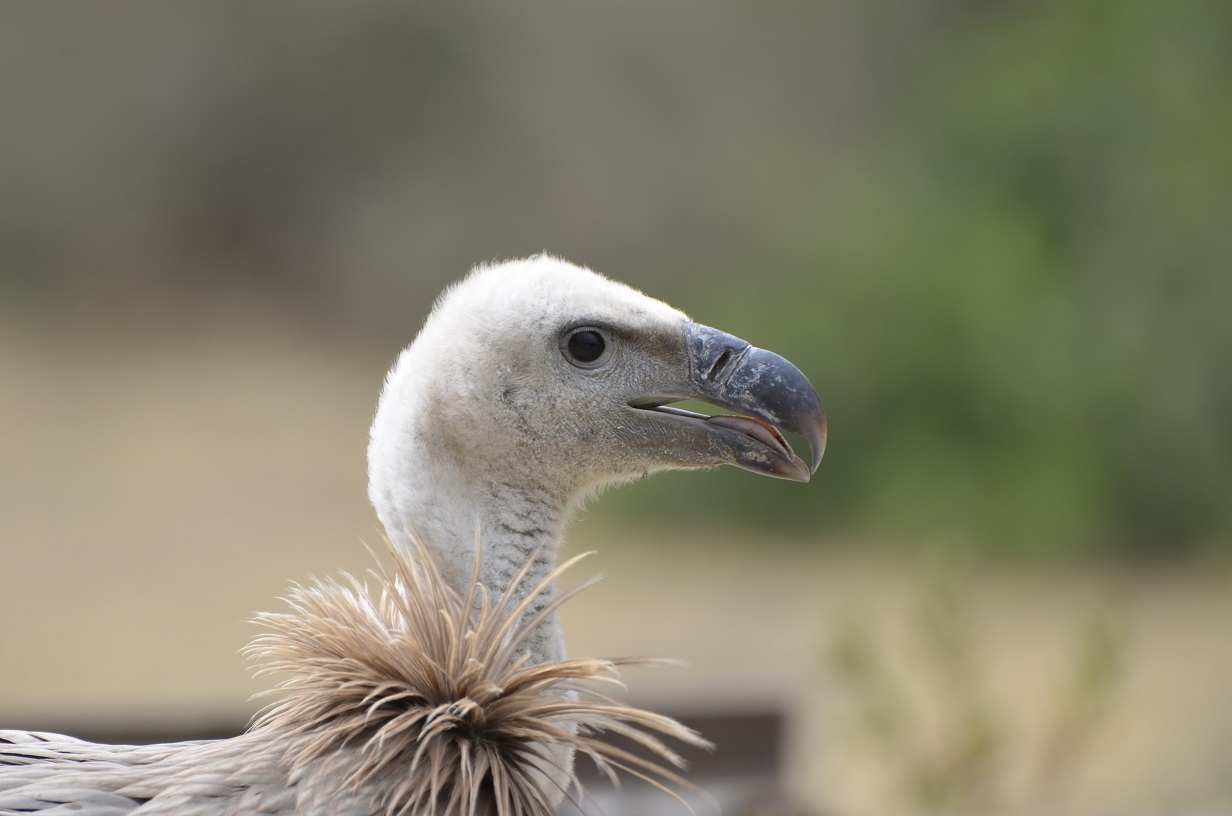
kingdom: Animalia
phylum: Chordata
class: Aves
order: Accipitriformes
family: Accipitridae
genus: Gyps
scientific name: Gyps fulvus
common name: Griffon vulture
